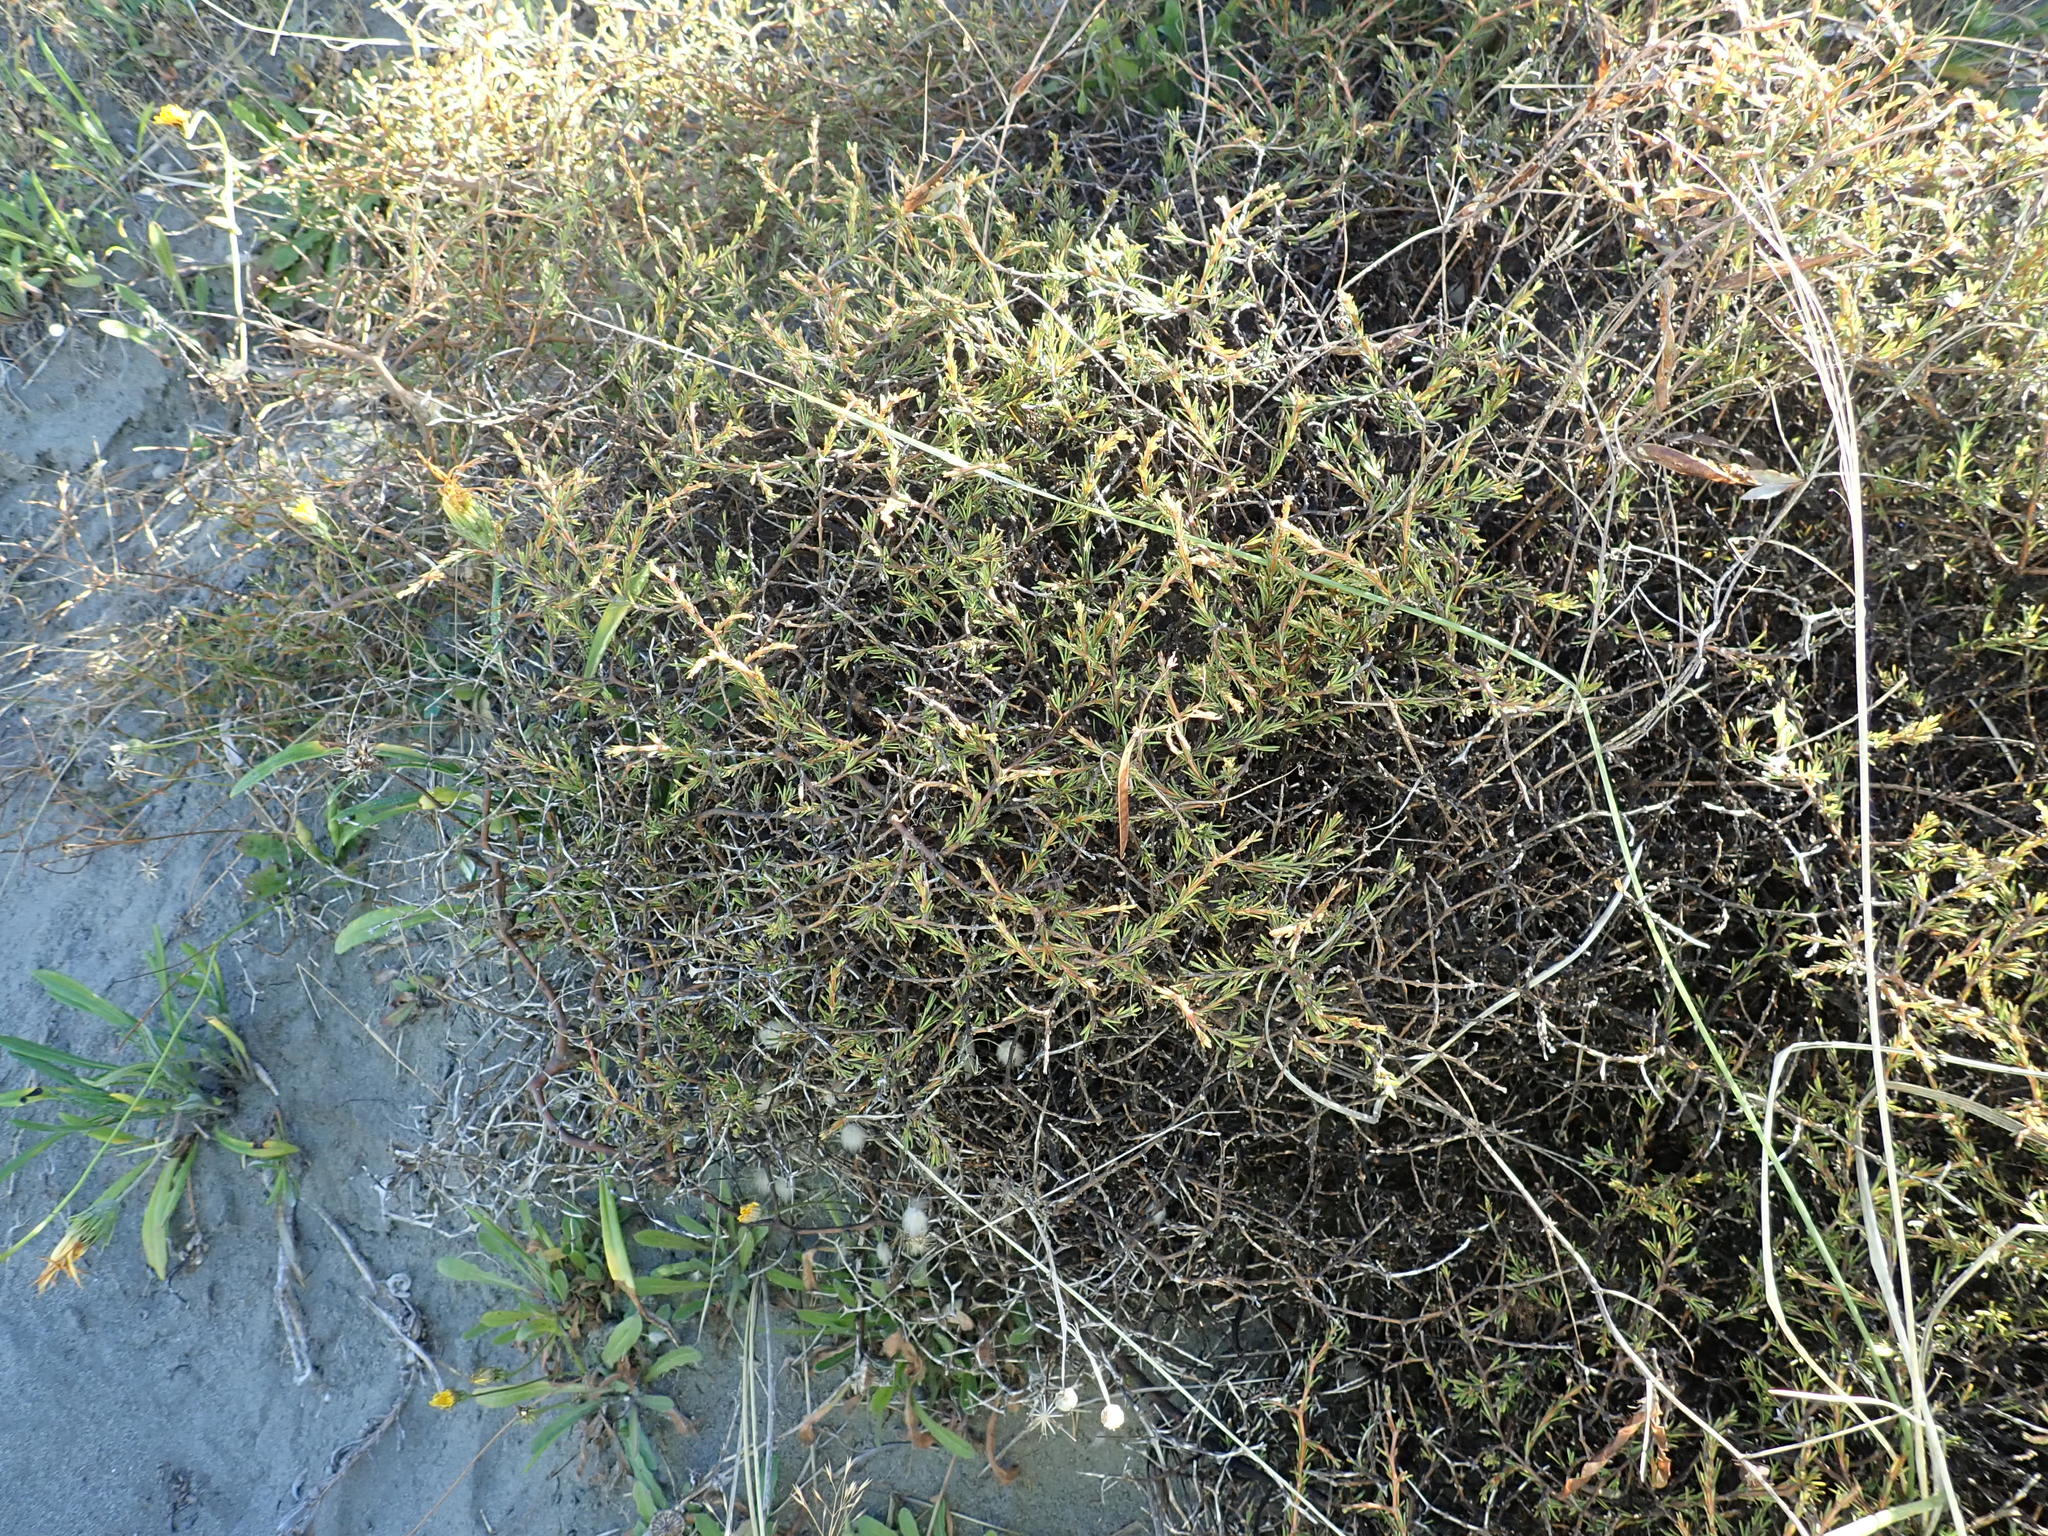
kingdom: Plantae
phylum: Tracheophyta
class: Magnoliopsida
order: Gentianales
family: Rubiaceae
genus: Coprosma
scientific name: Coprosma acerosa
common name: Sand coprosma
